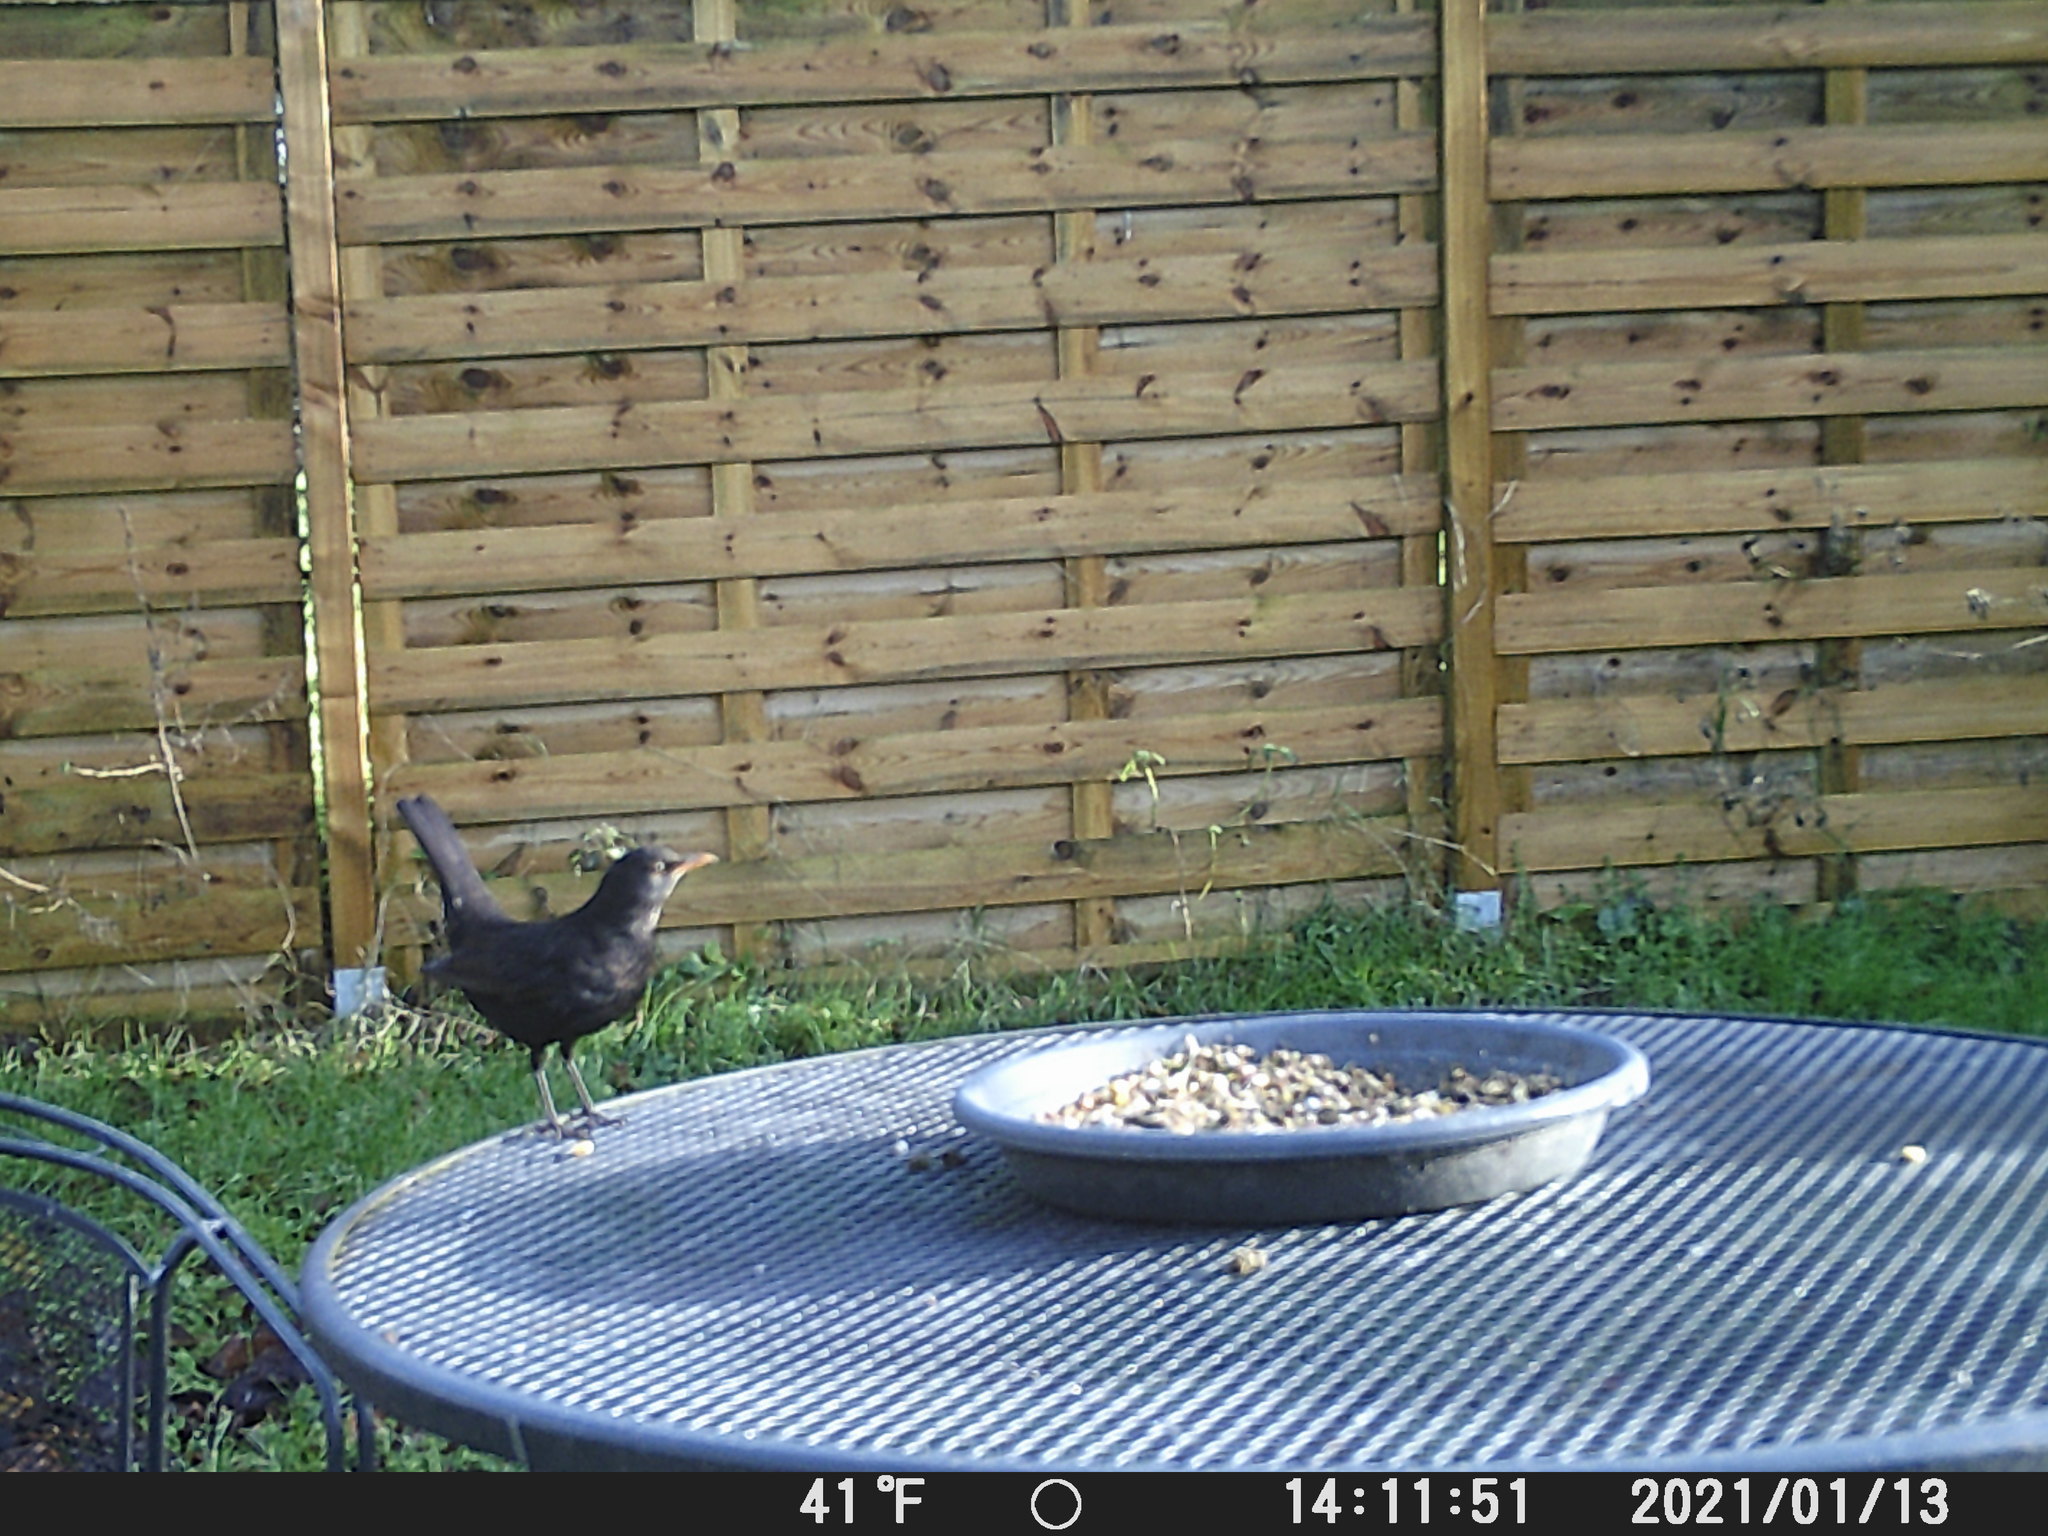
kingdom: Animalia
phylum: Chordata
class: Aves
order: Passeriformes
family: Turdidae
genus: Turdus
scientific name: Turdus merula
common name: Common blackbird
